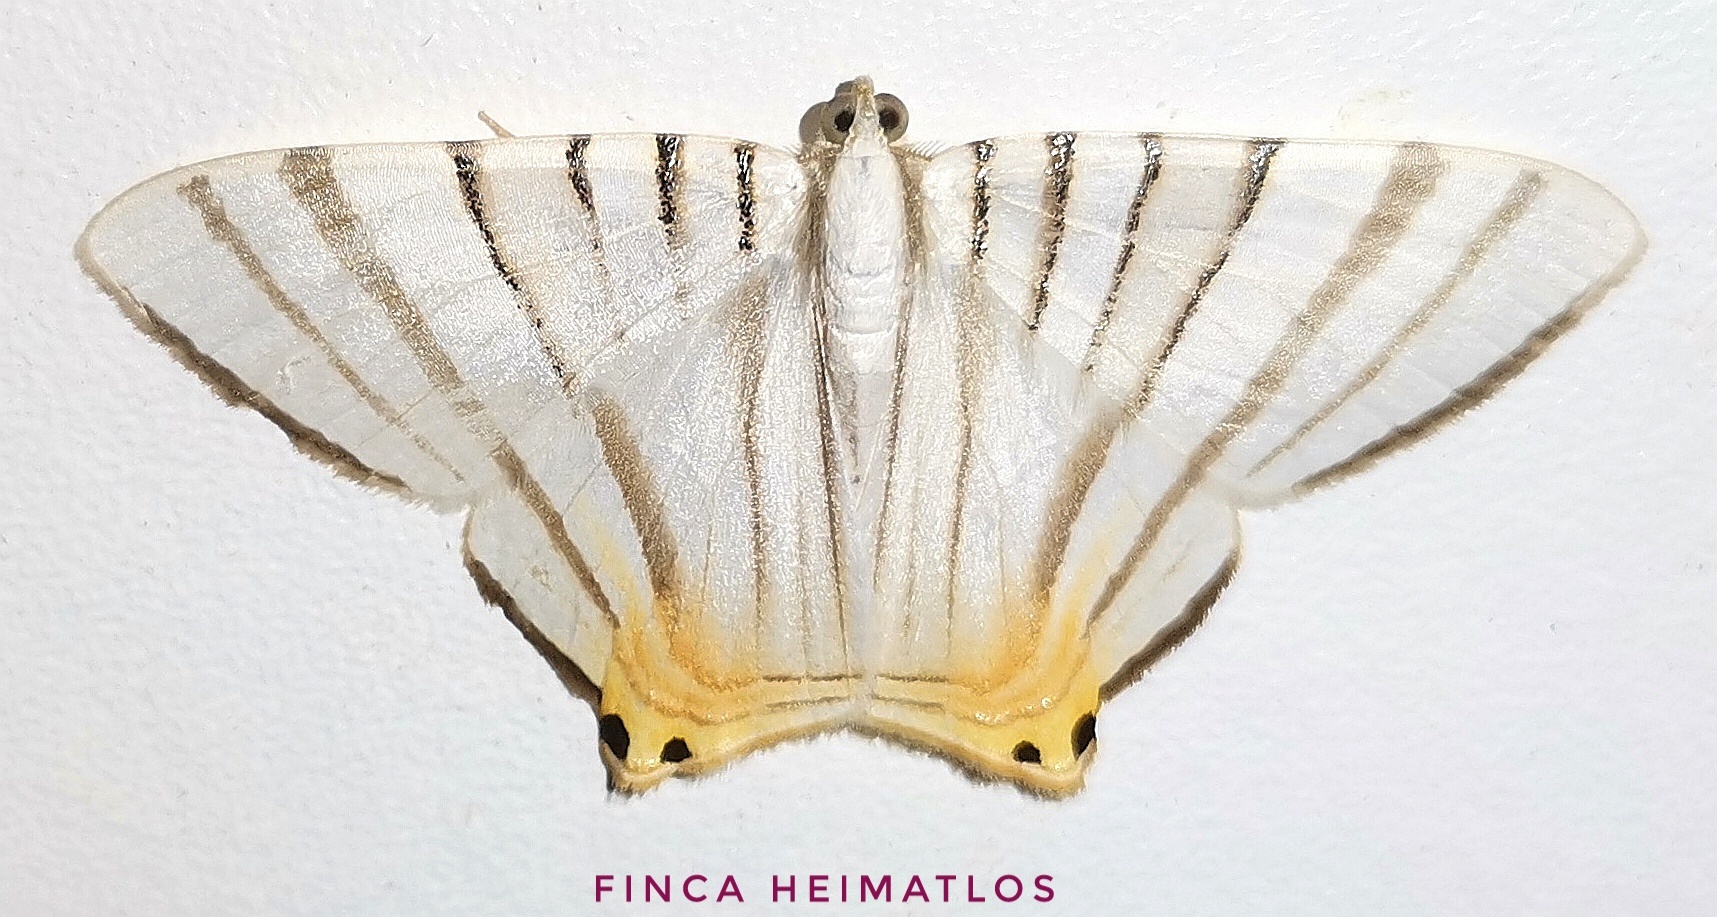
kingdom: Animalia
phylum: Arthropoda
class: Insecta
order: Lepidoptera
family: Geometridae
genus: Phrygionis
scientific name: Phrygionis platinata
